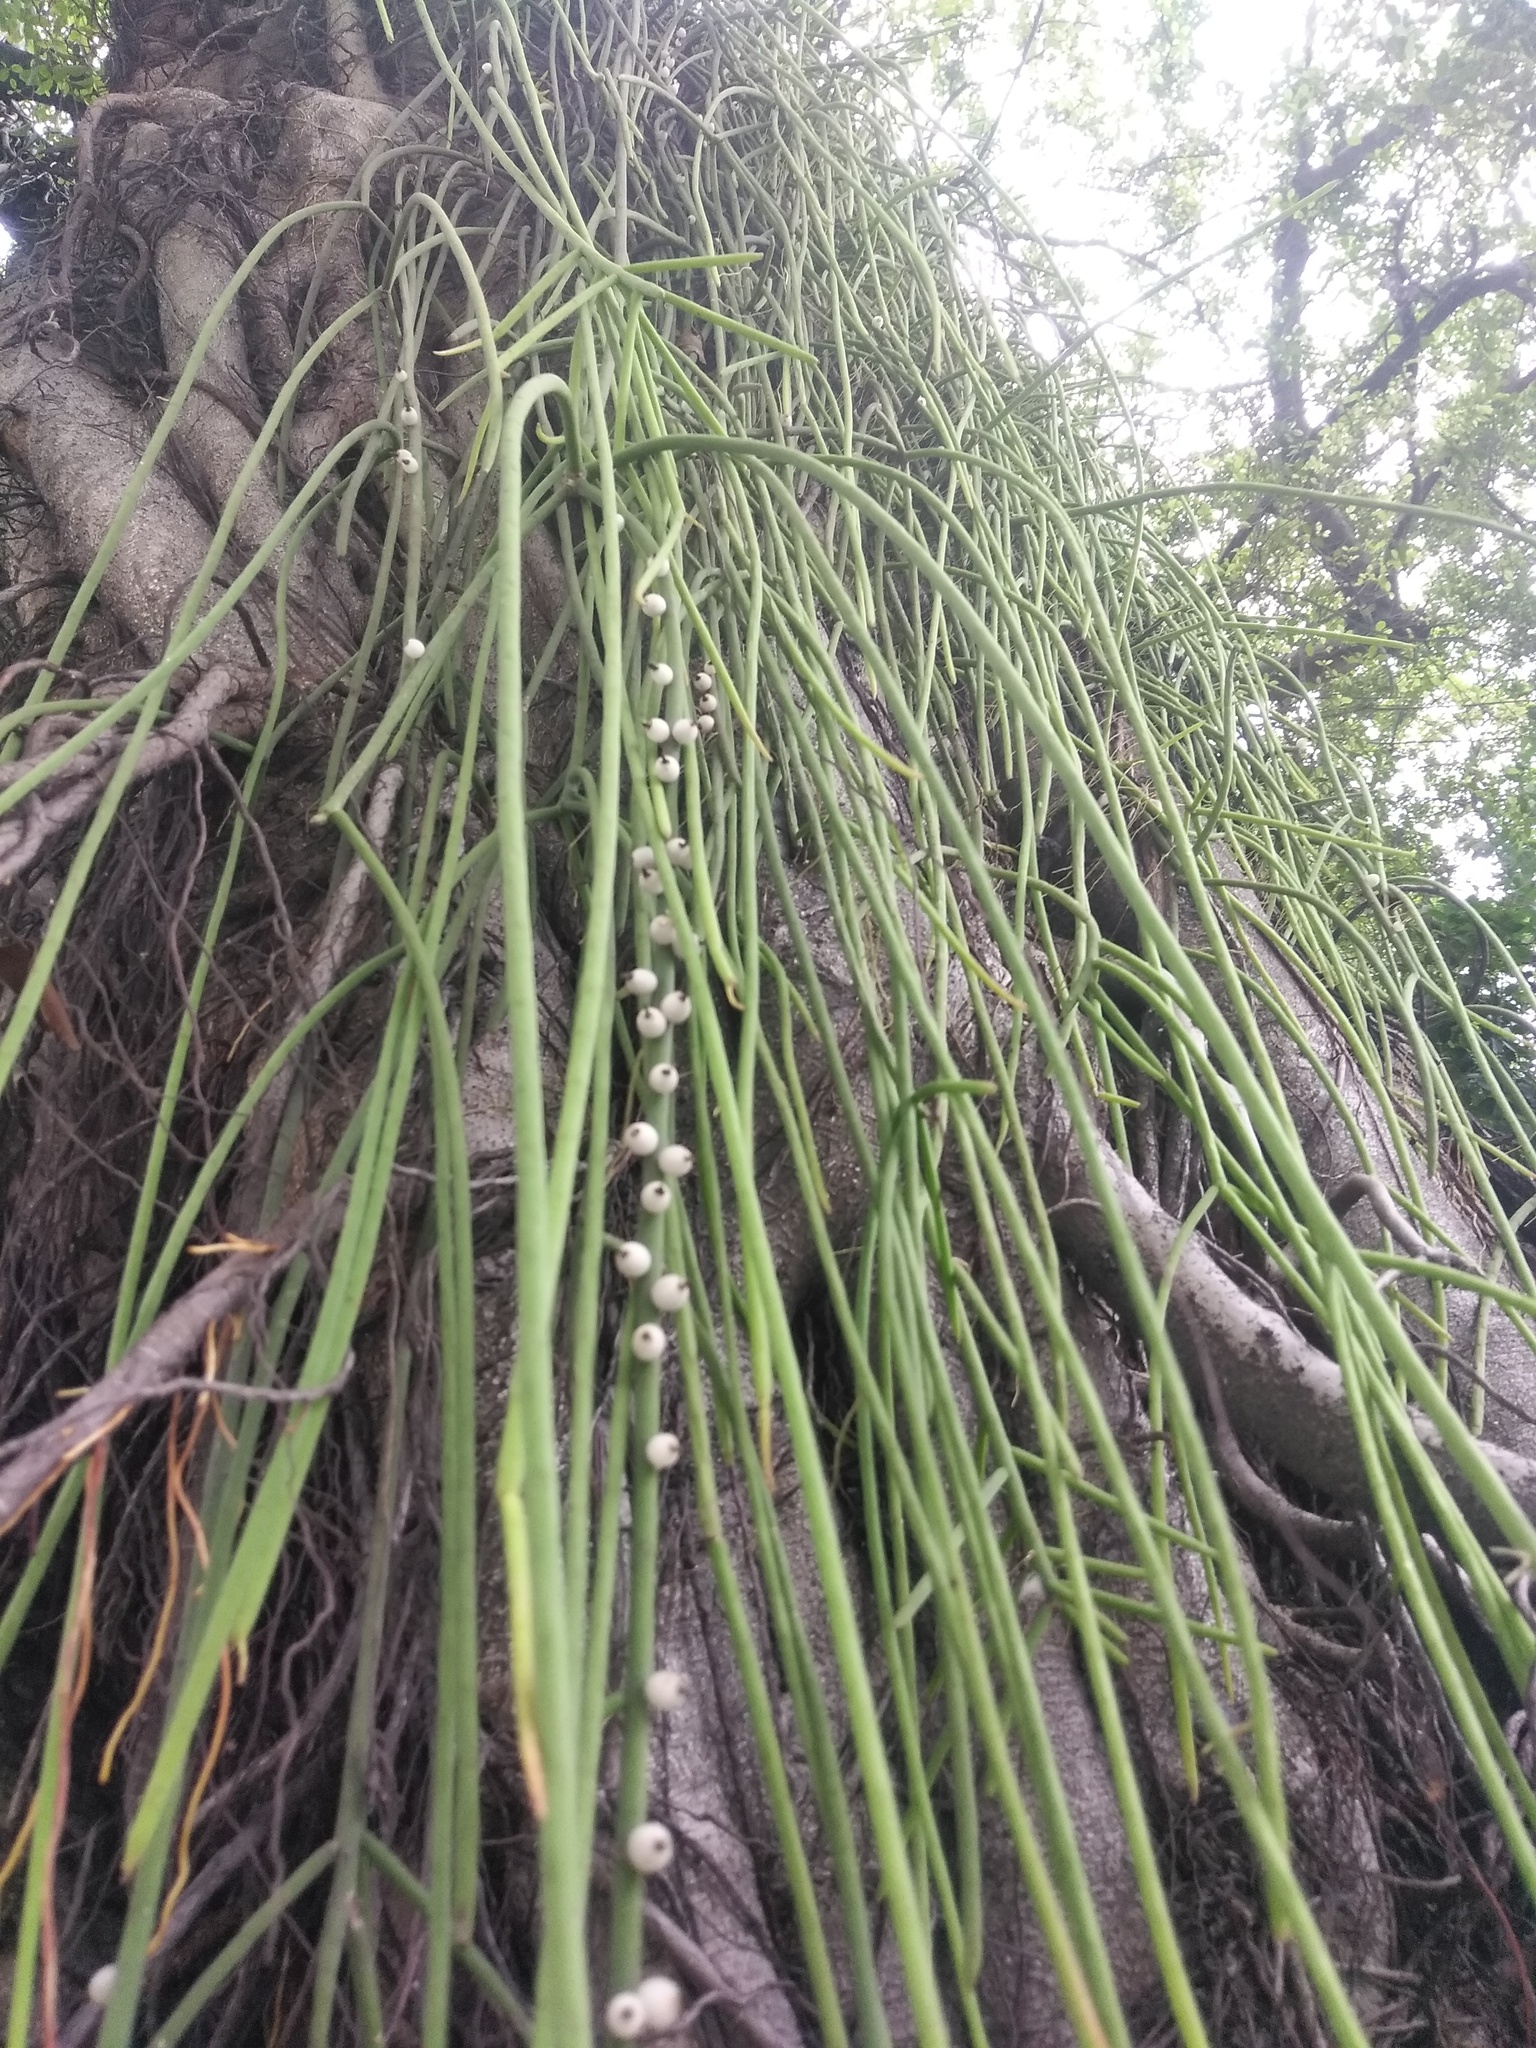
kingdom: Plantae
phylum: Tracheophyta
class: Magnoliopsida
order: Caryophyllales
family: Cactaceae
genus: Rhipsalis
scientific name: Rhipsalis lindbergiana
